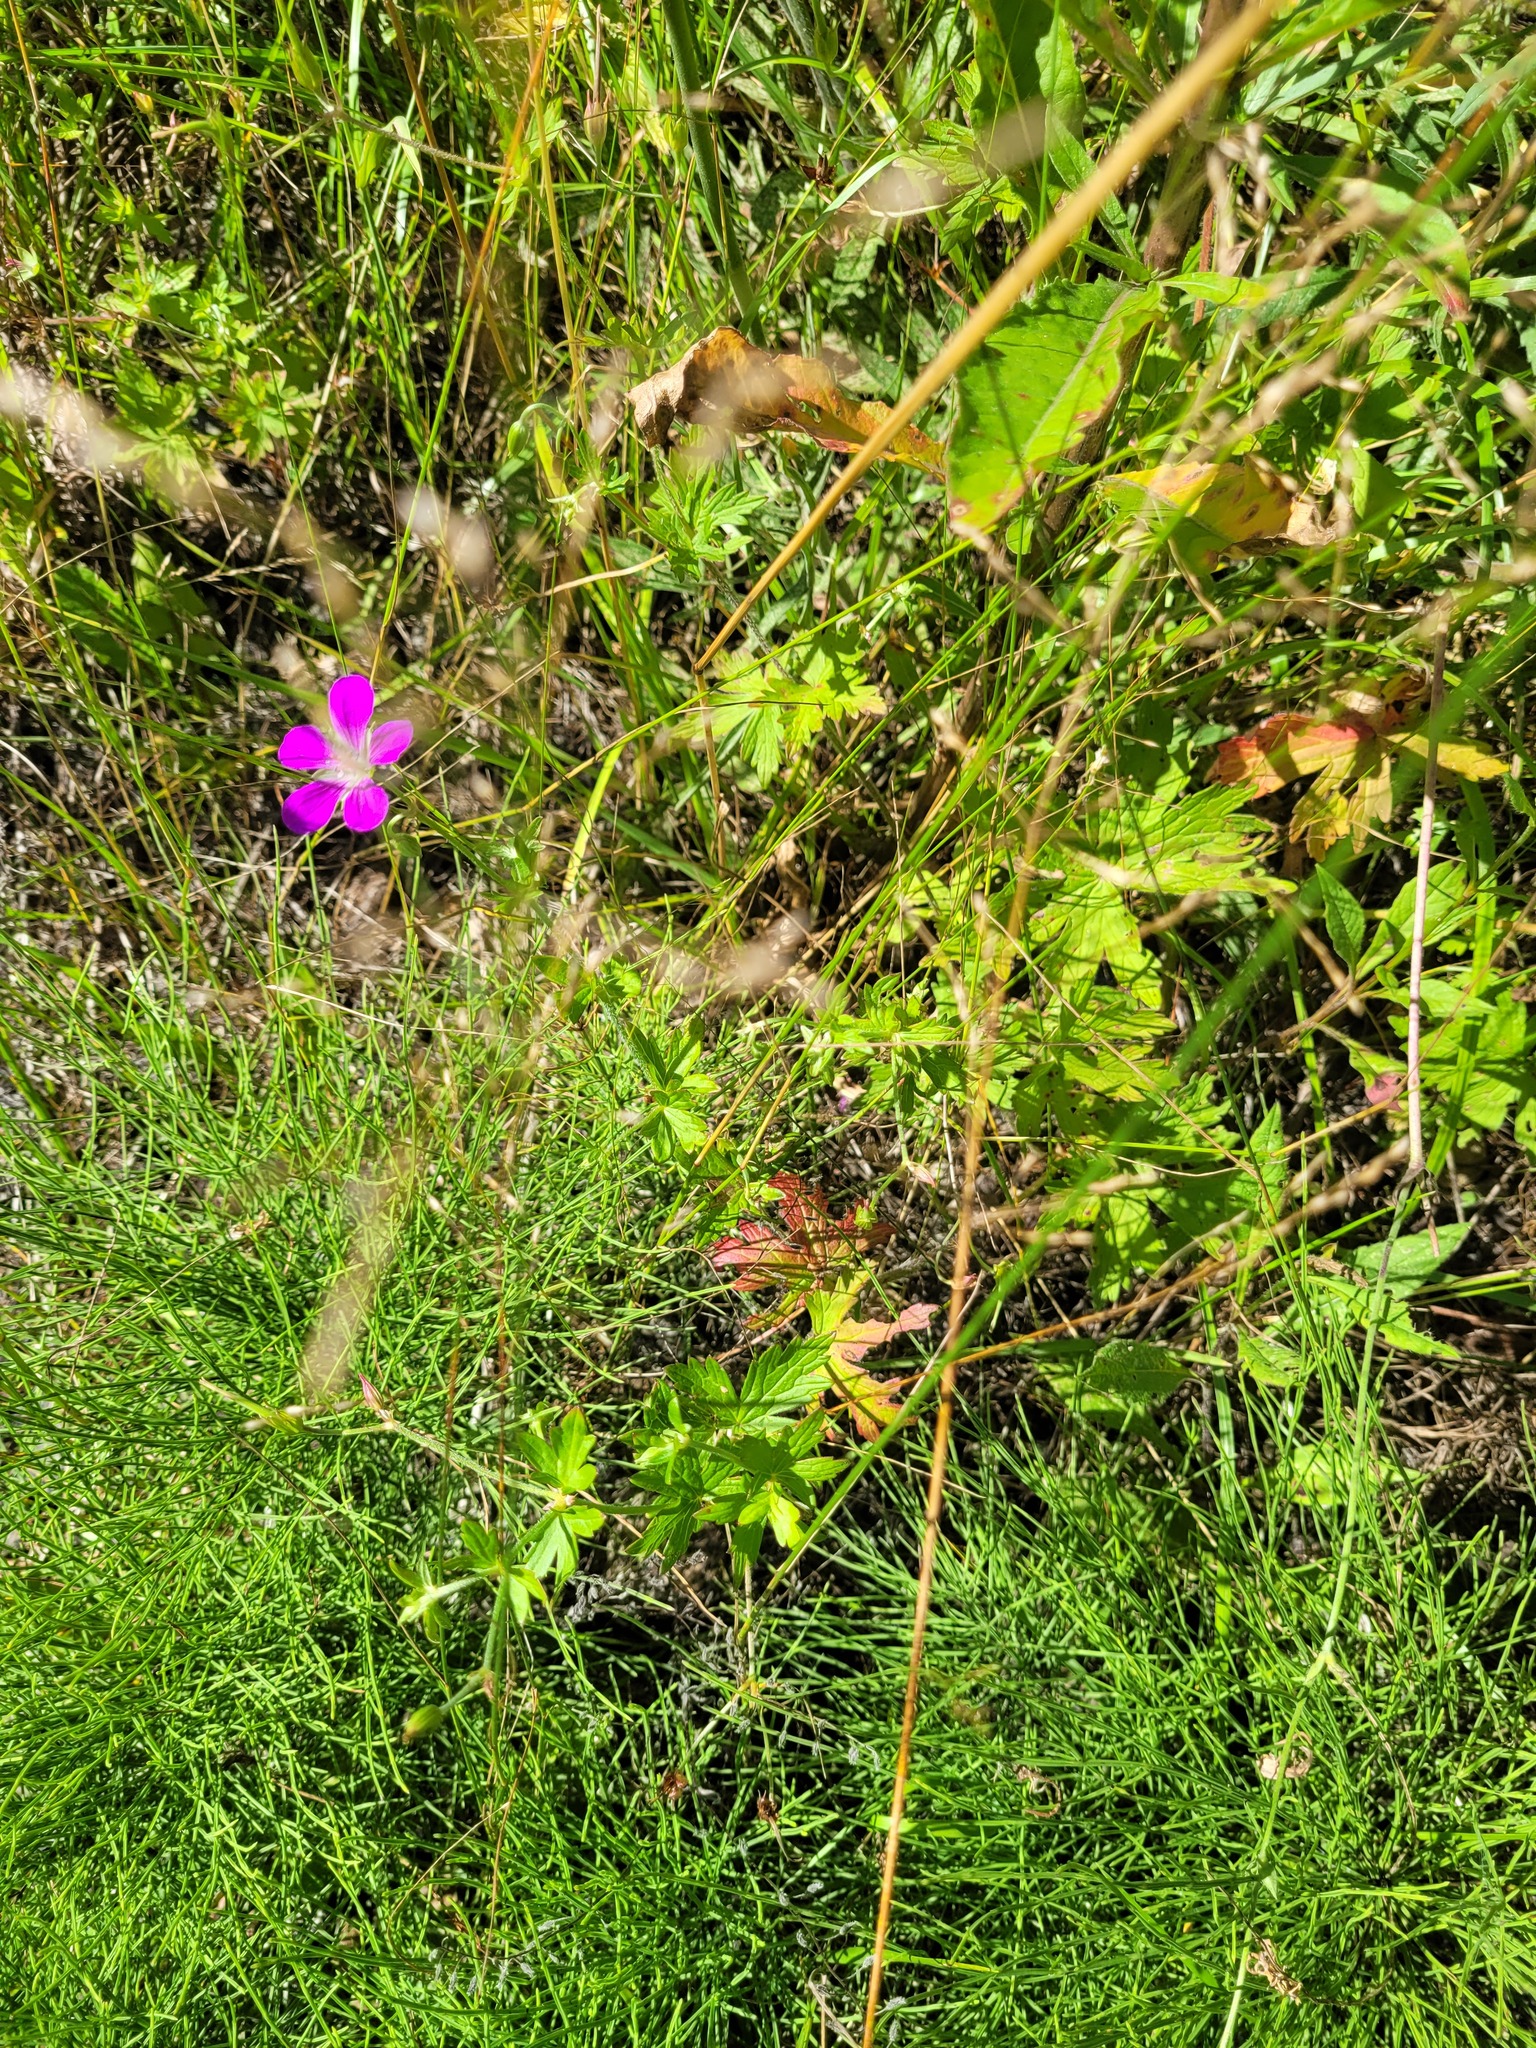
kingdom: Plantae
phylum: Tracheophyta
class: Magnoliopsida
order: Geraniales
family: Geraniaceae
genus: Geranium
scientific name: Geranium palustre
